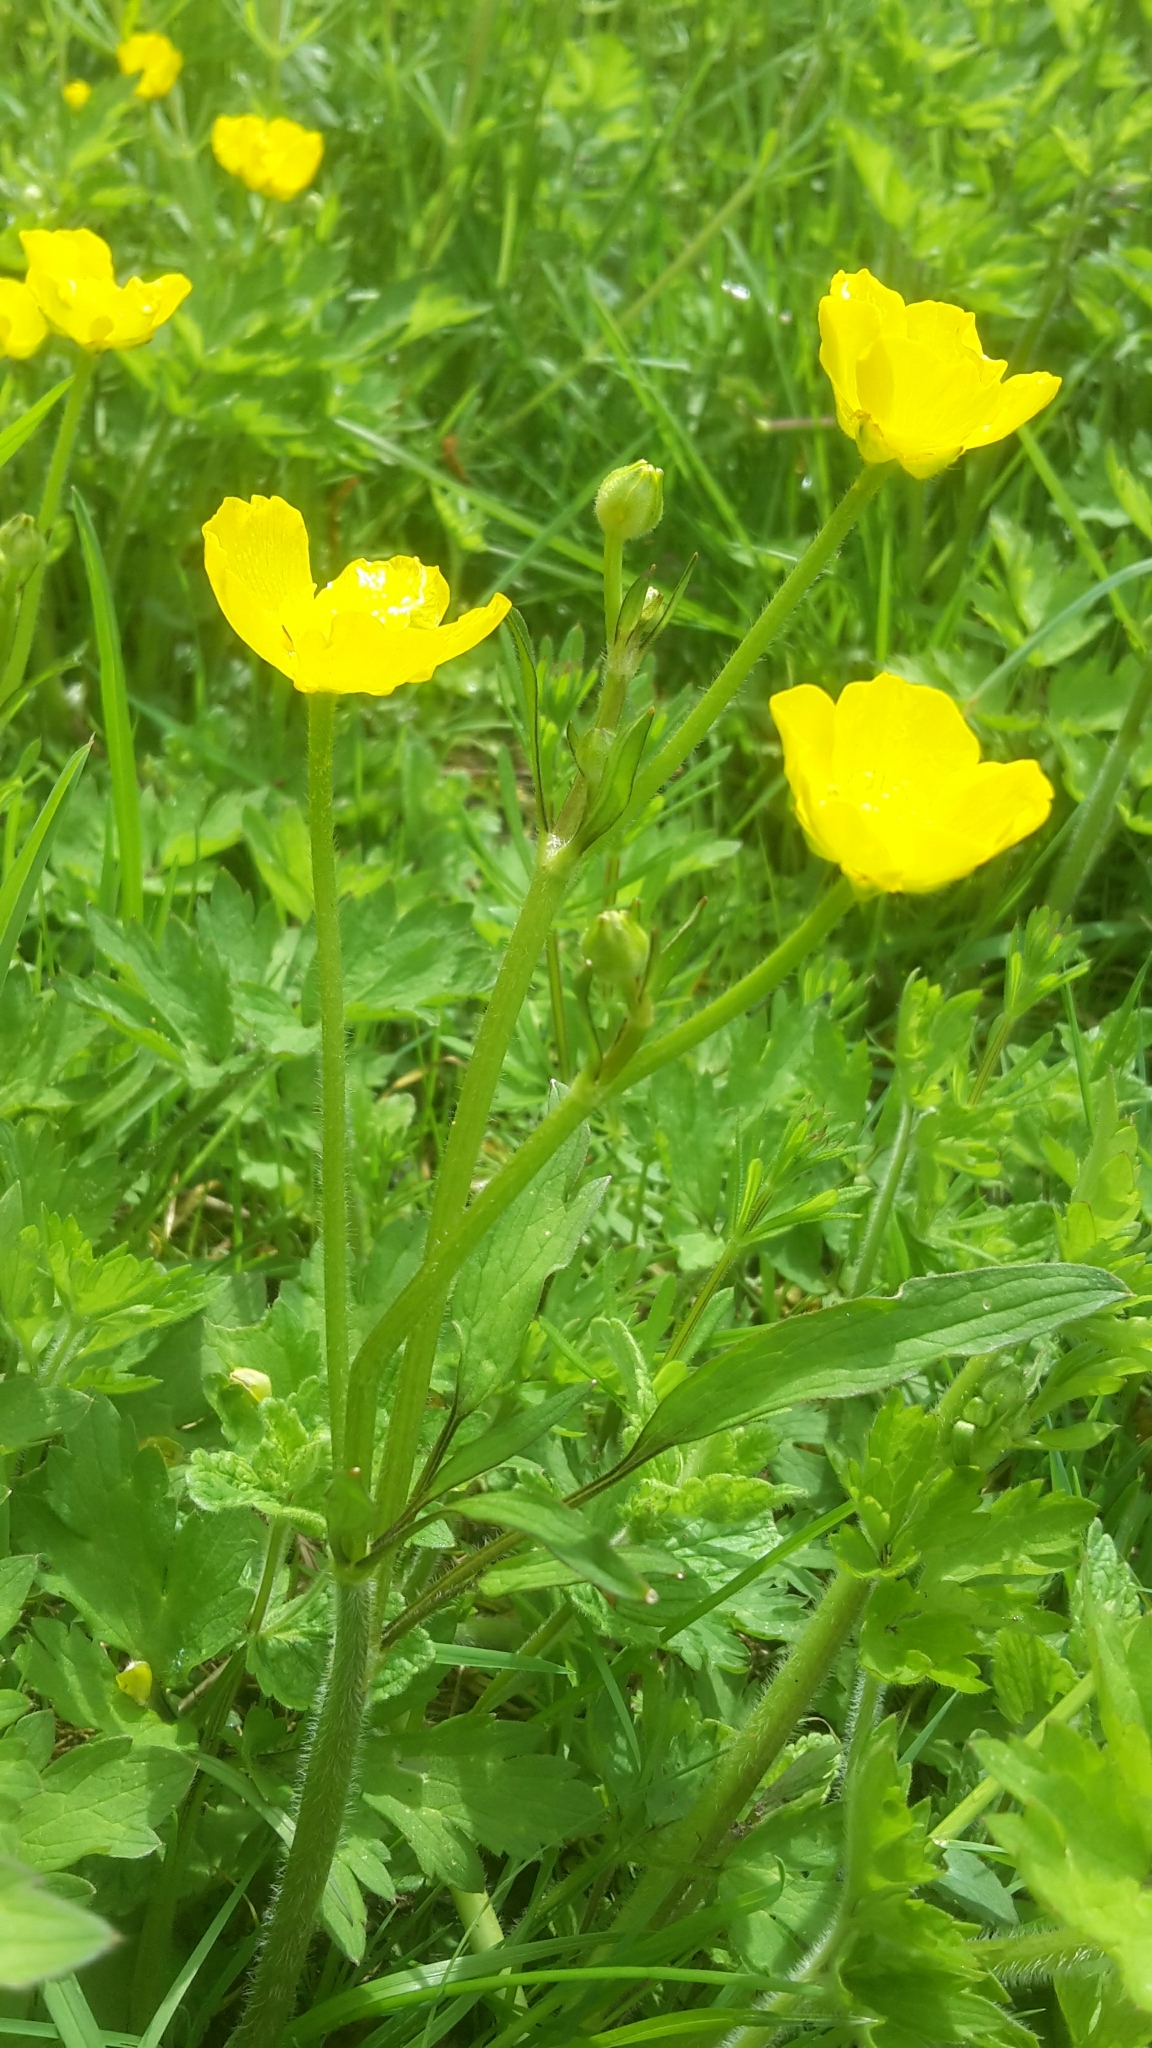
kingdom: Plantae
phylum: Tracheophyta
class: Magnoliopsida
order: Ranunculales
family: Ranunculaceae
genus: Ranunculus
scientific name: Ranunculus repens
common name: Creeping buttercup
